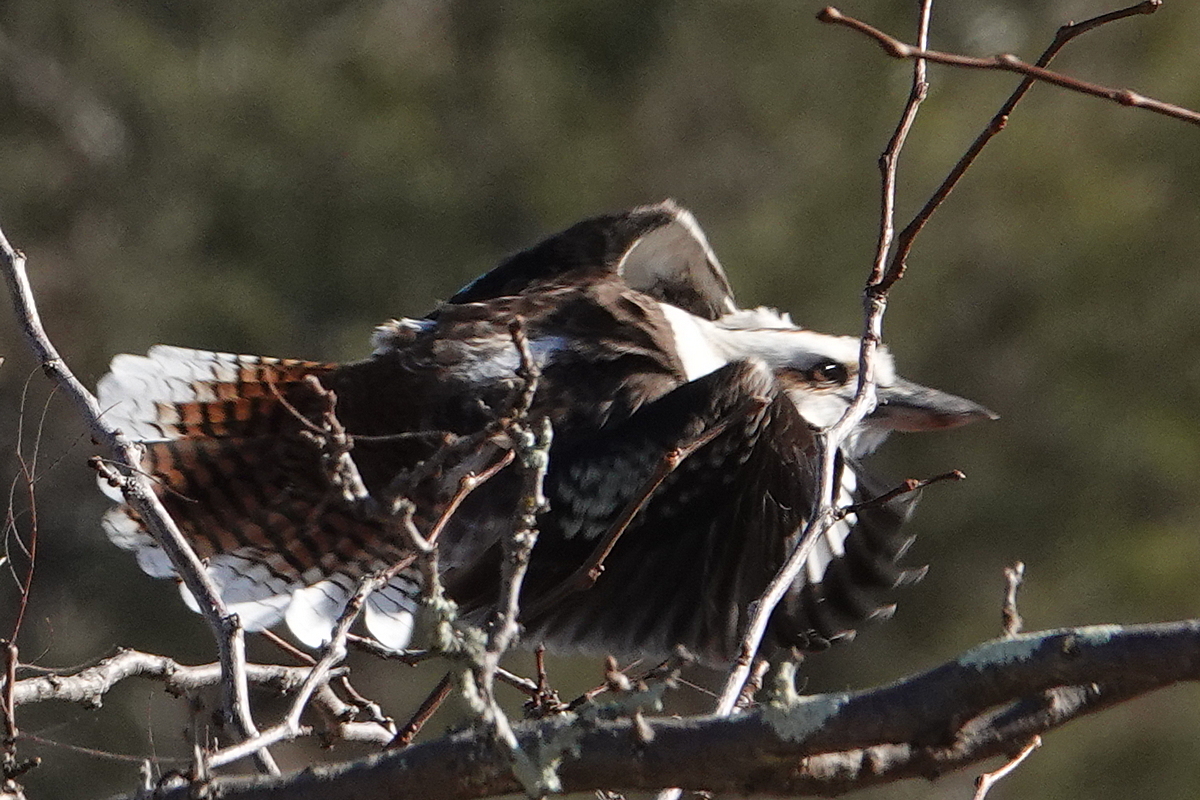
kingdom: Animalia
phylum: Chordata
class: Aves
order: Coraciiformes
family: Alcedinidae
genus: Dacelo
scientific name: Dacelo novaeguineae
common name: Laughing kookaburra
